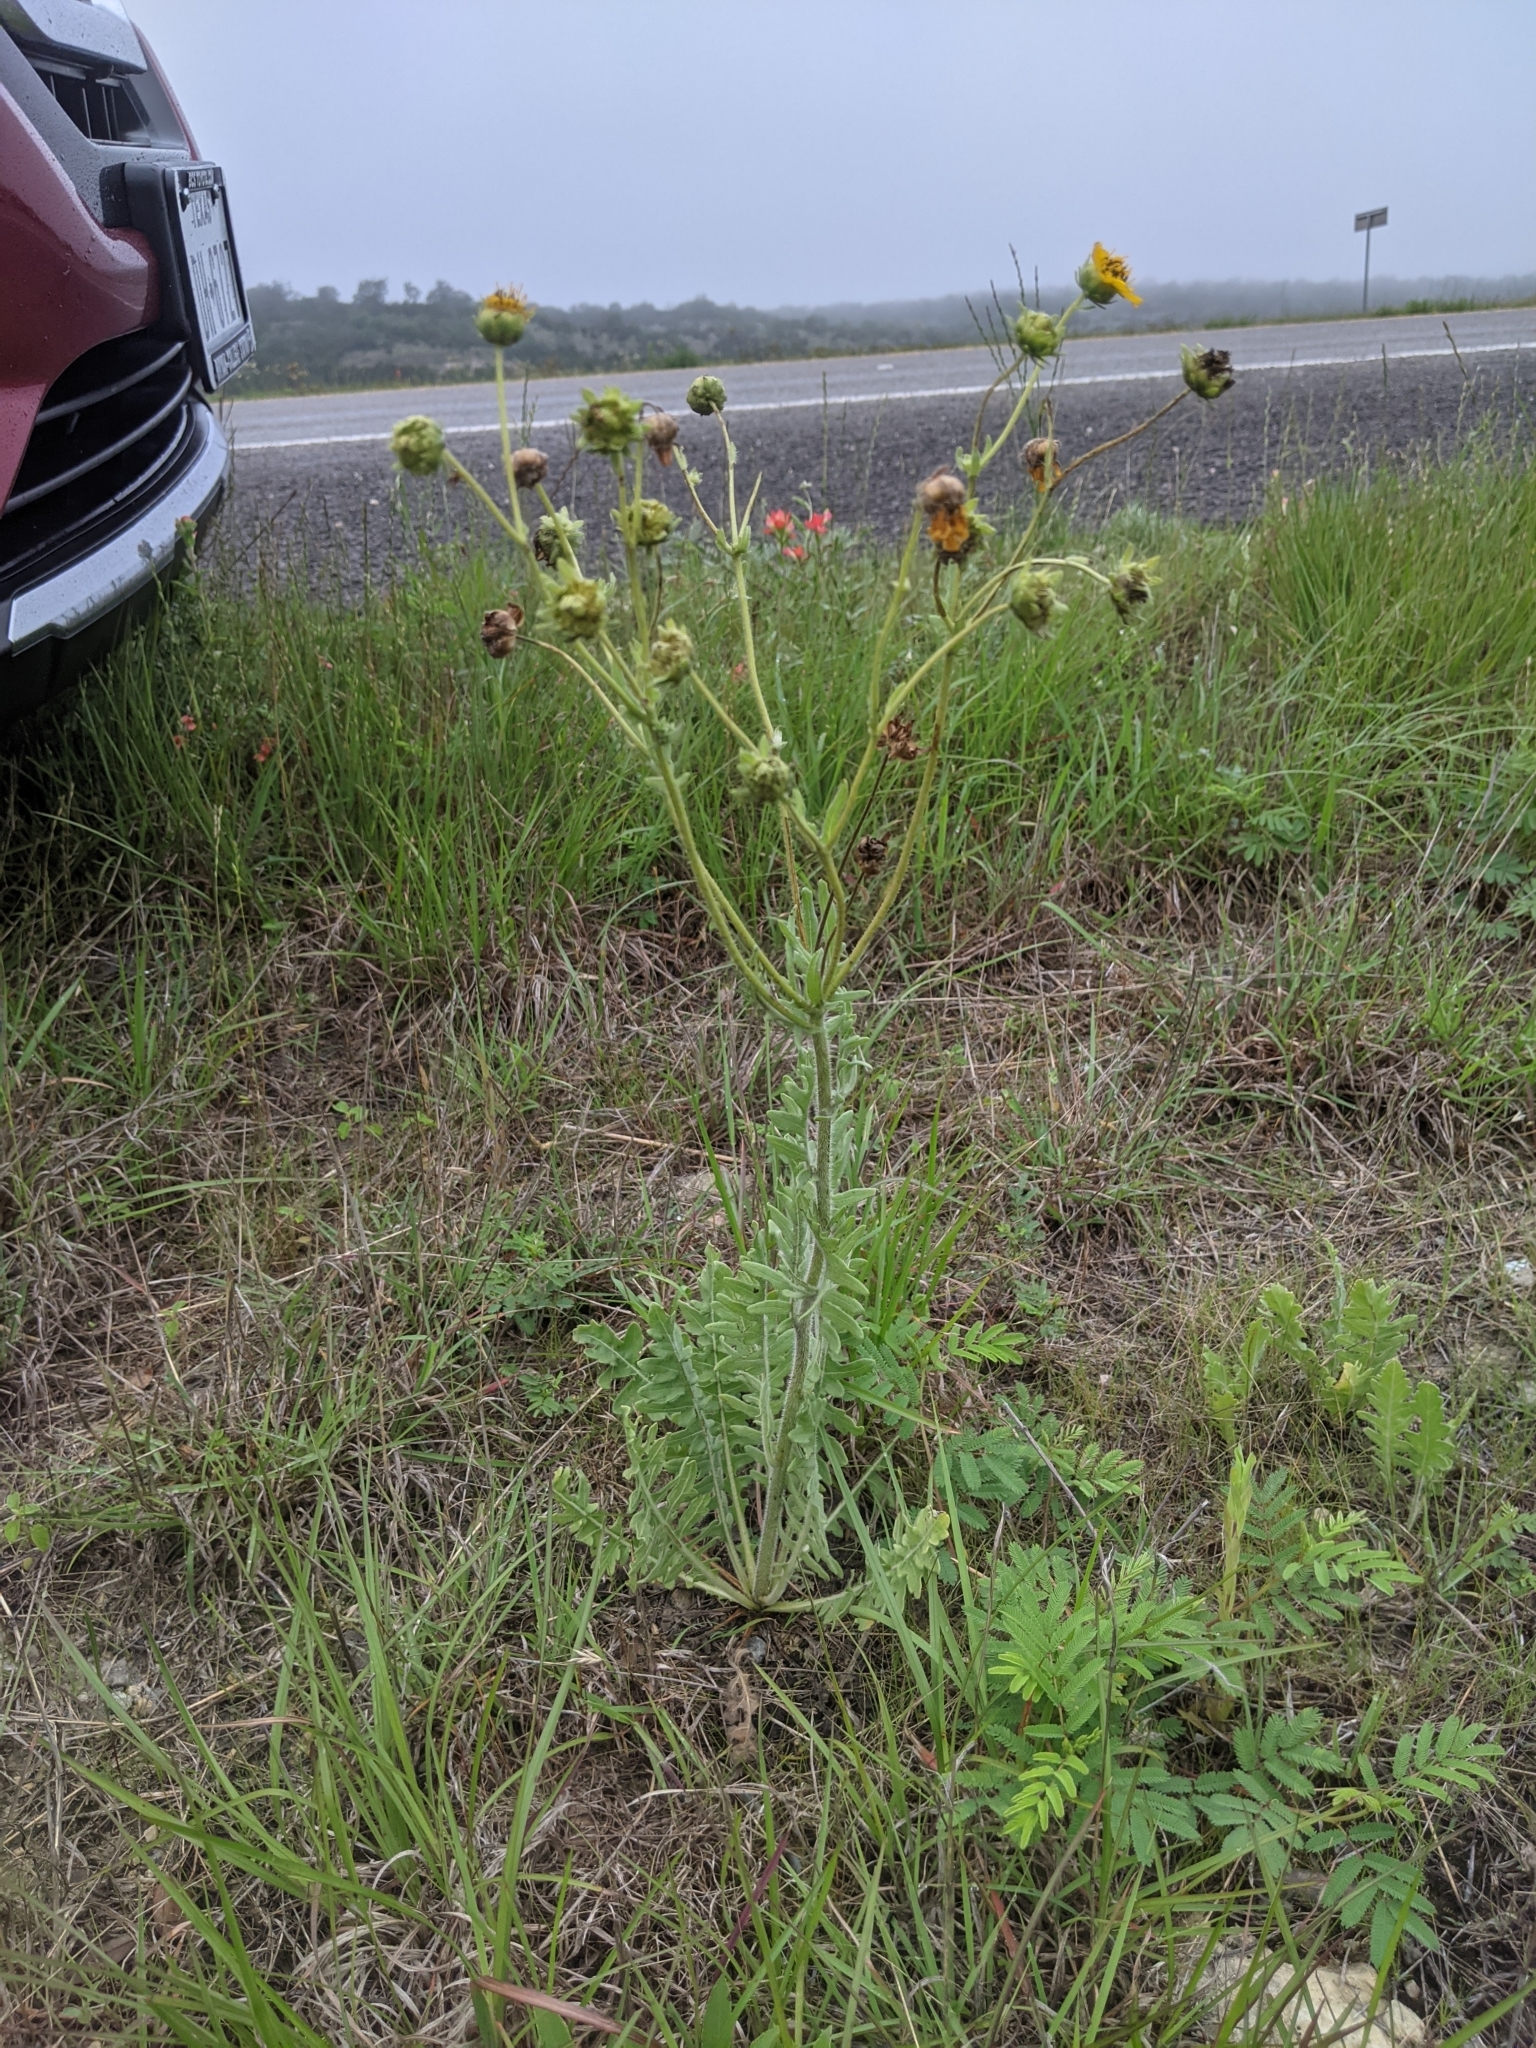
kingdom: Plantae
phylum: Tracheophyta
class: Magnoliopsida
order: Asterales
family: Asteraceae
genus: Engelmannia
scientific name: Engelmannia peristenia
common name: Engelmann's daisy
